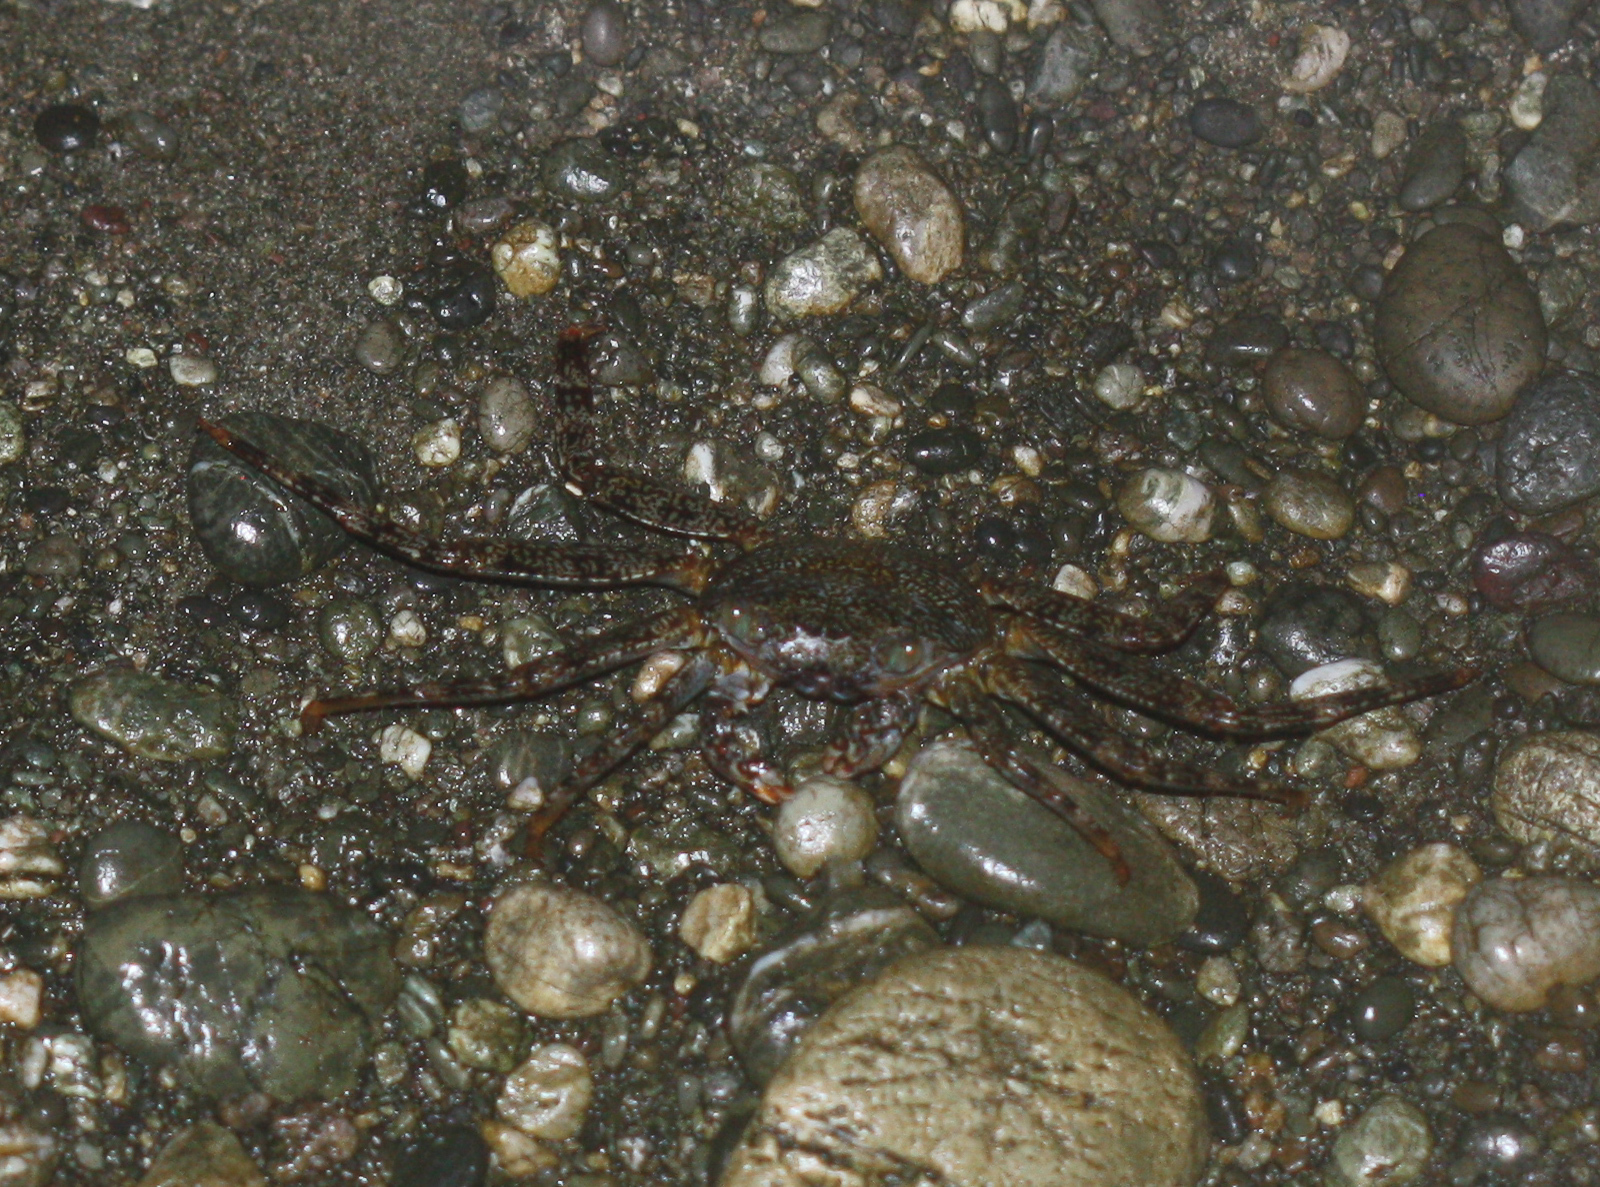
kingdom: Animalia
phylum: Arthropoda
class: Malacostraca
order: Decapoda
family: Grapsidae
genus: Grapsus
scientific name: Grapsus grapsus
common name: Sally lightfoot
